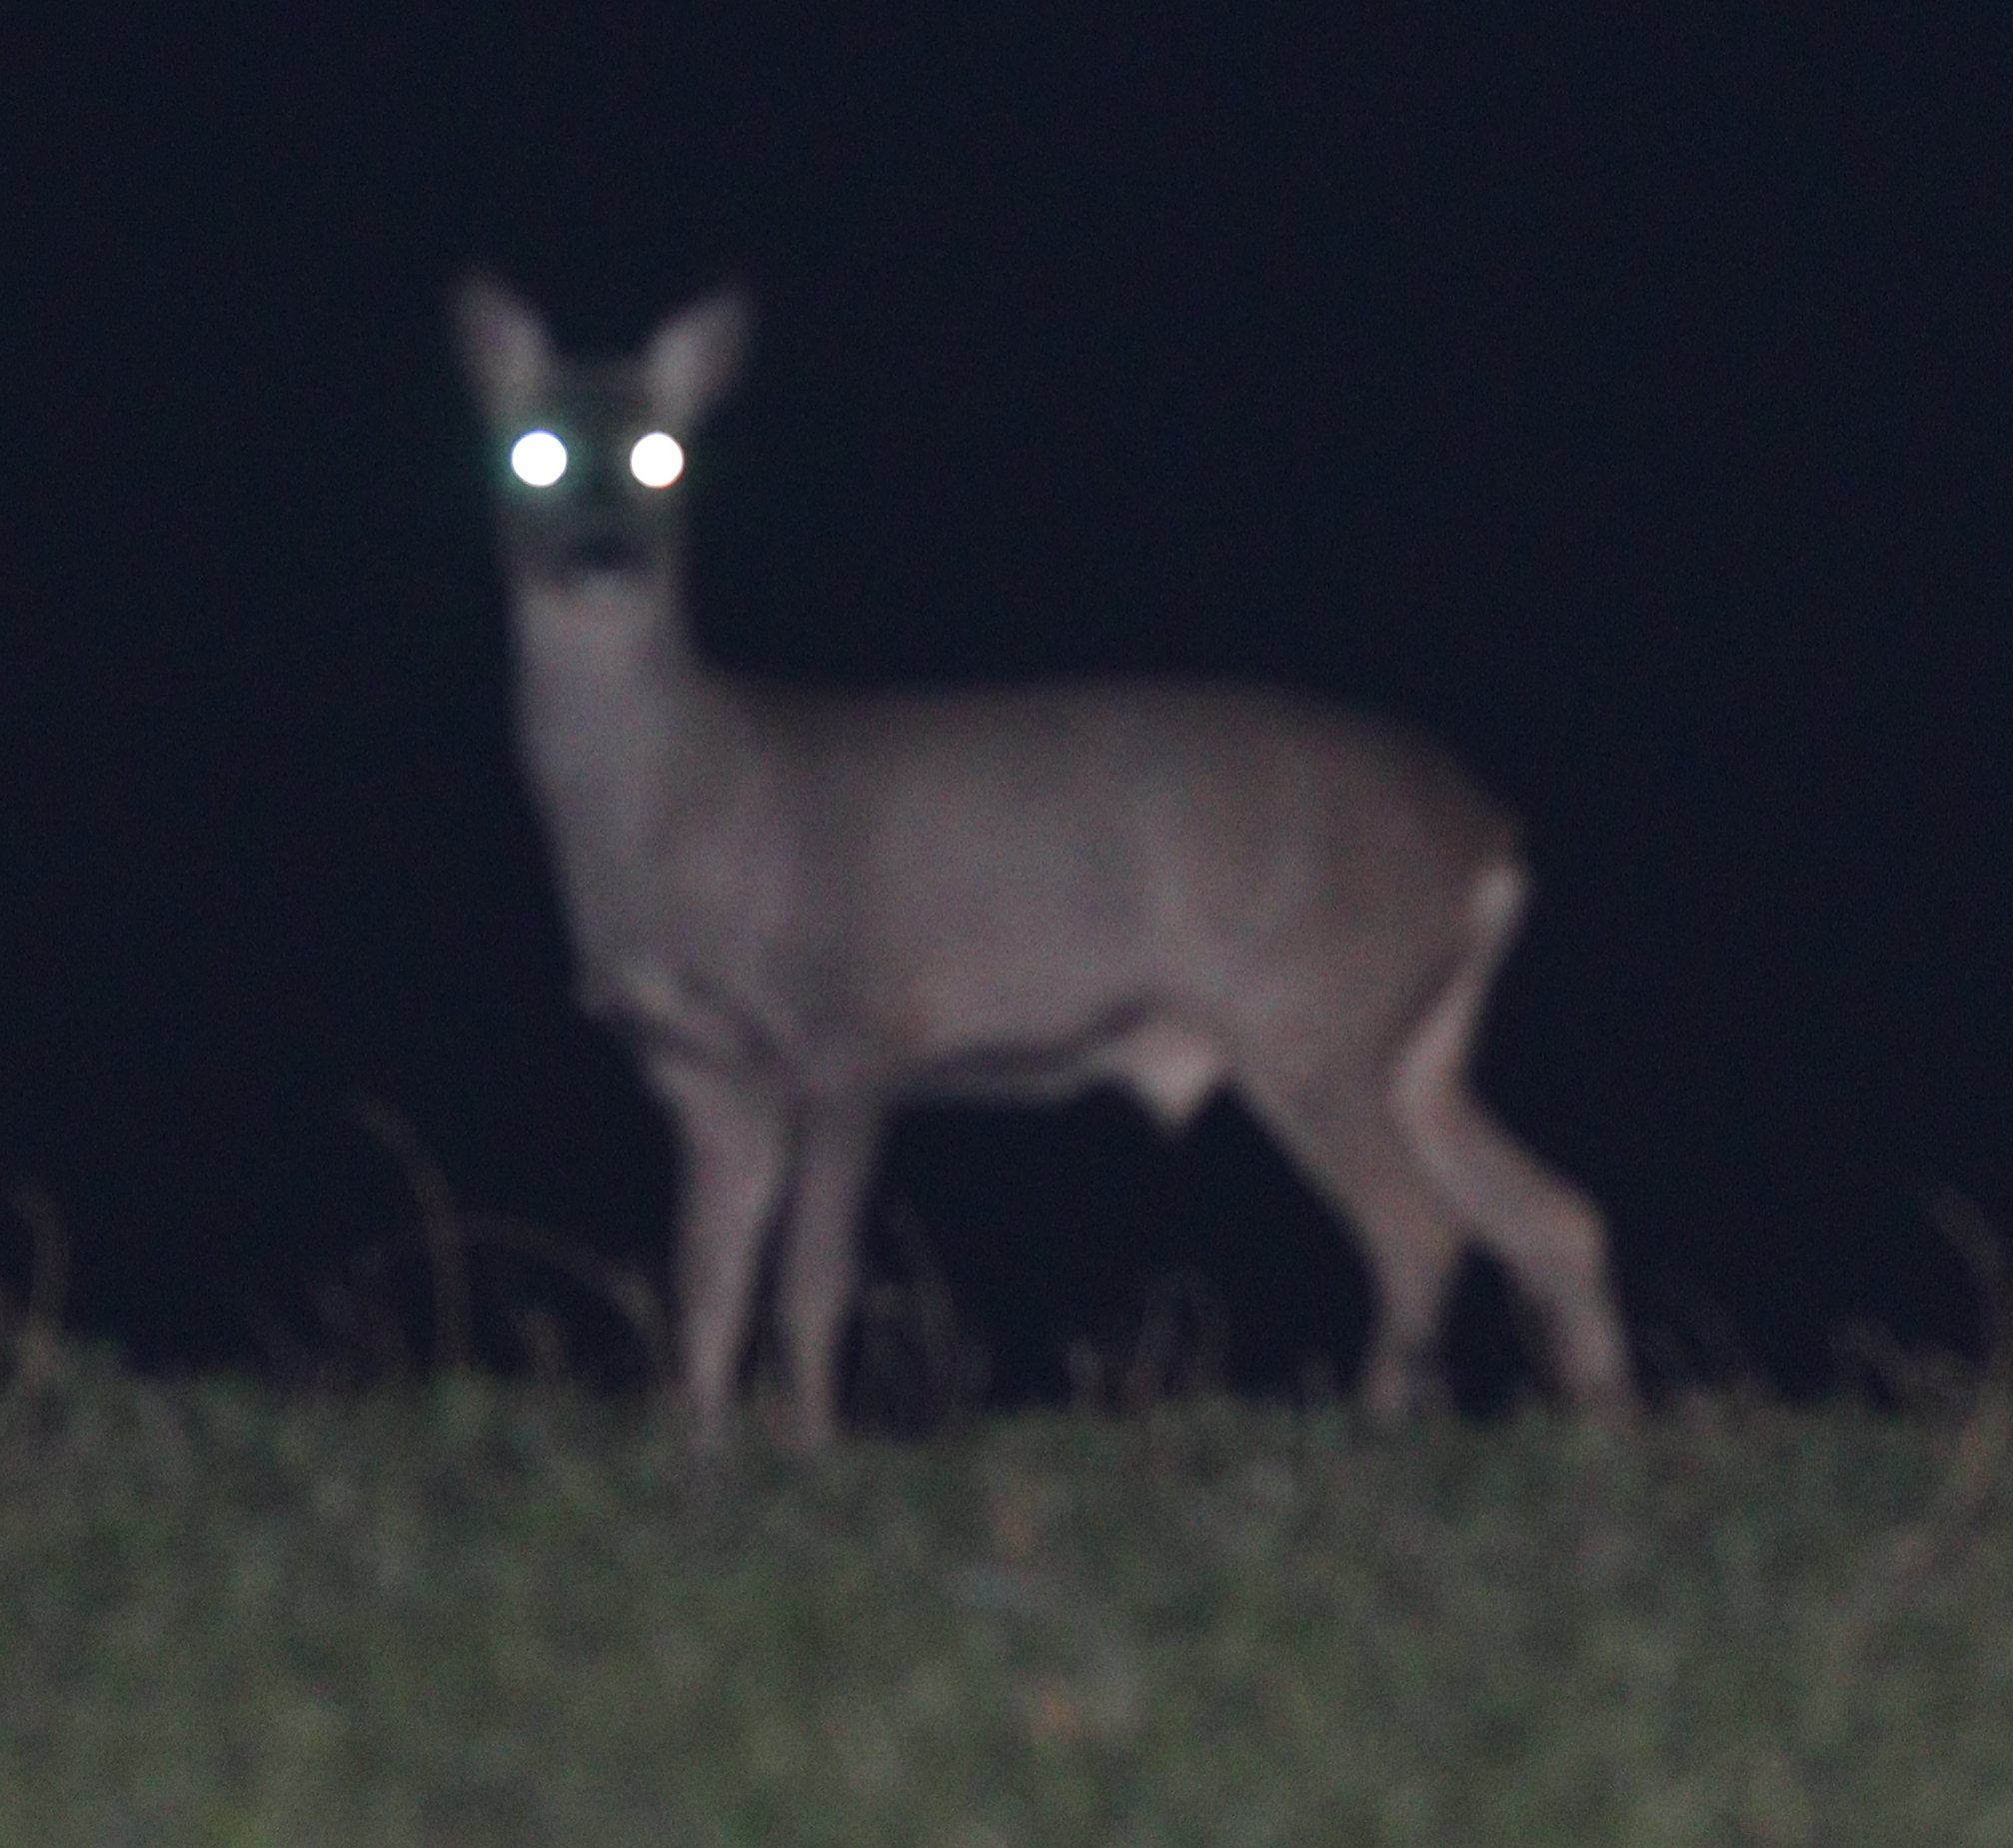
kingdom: Animalia
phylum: Chordata
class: Mammalia
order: Artiodactyla
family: Cervidae
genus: Capreolus
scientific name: Capreolus capreolus
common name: Western roe deer
